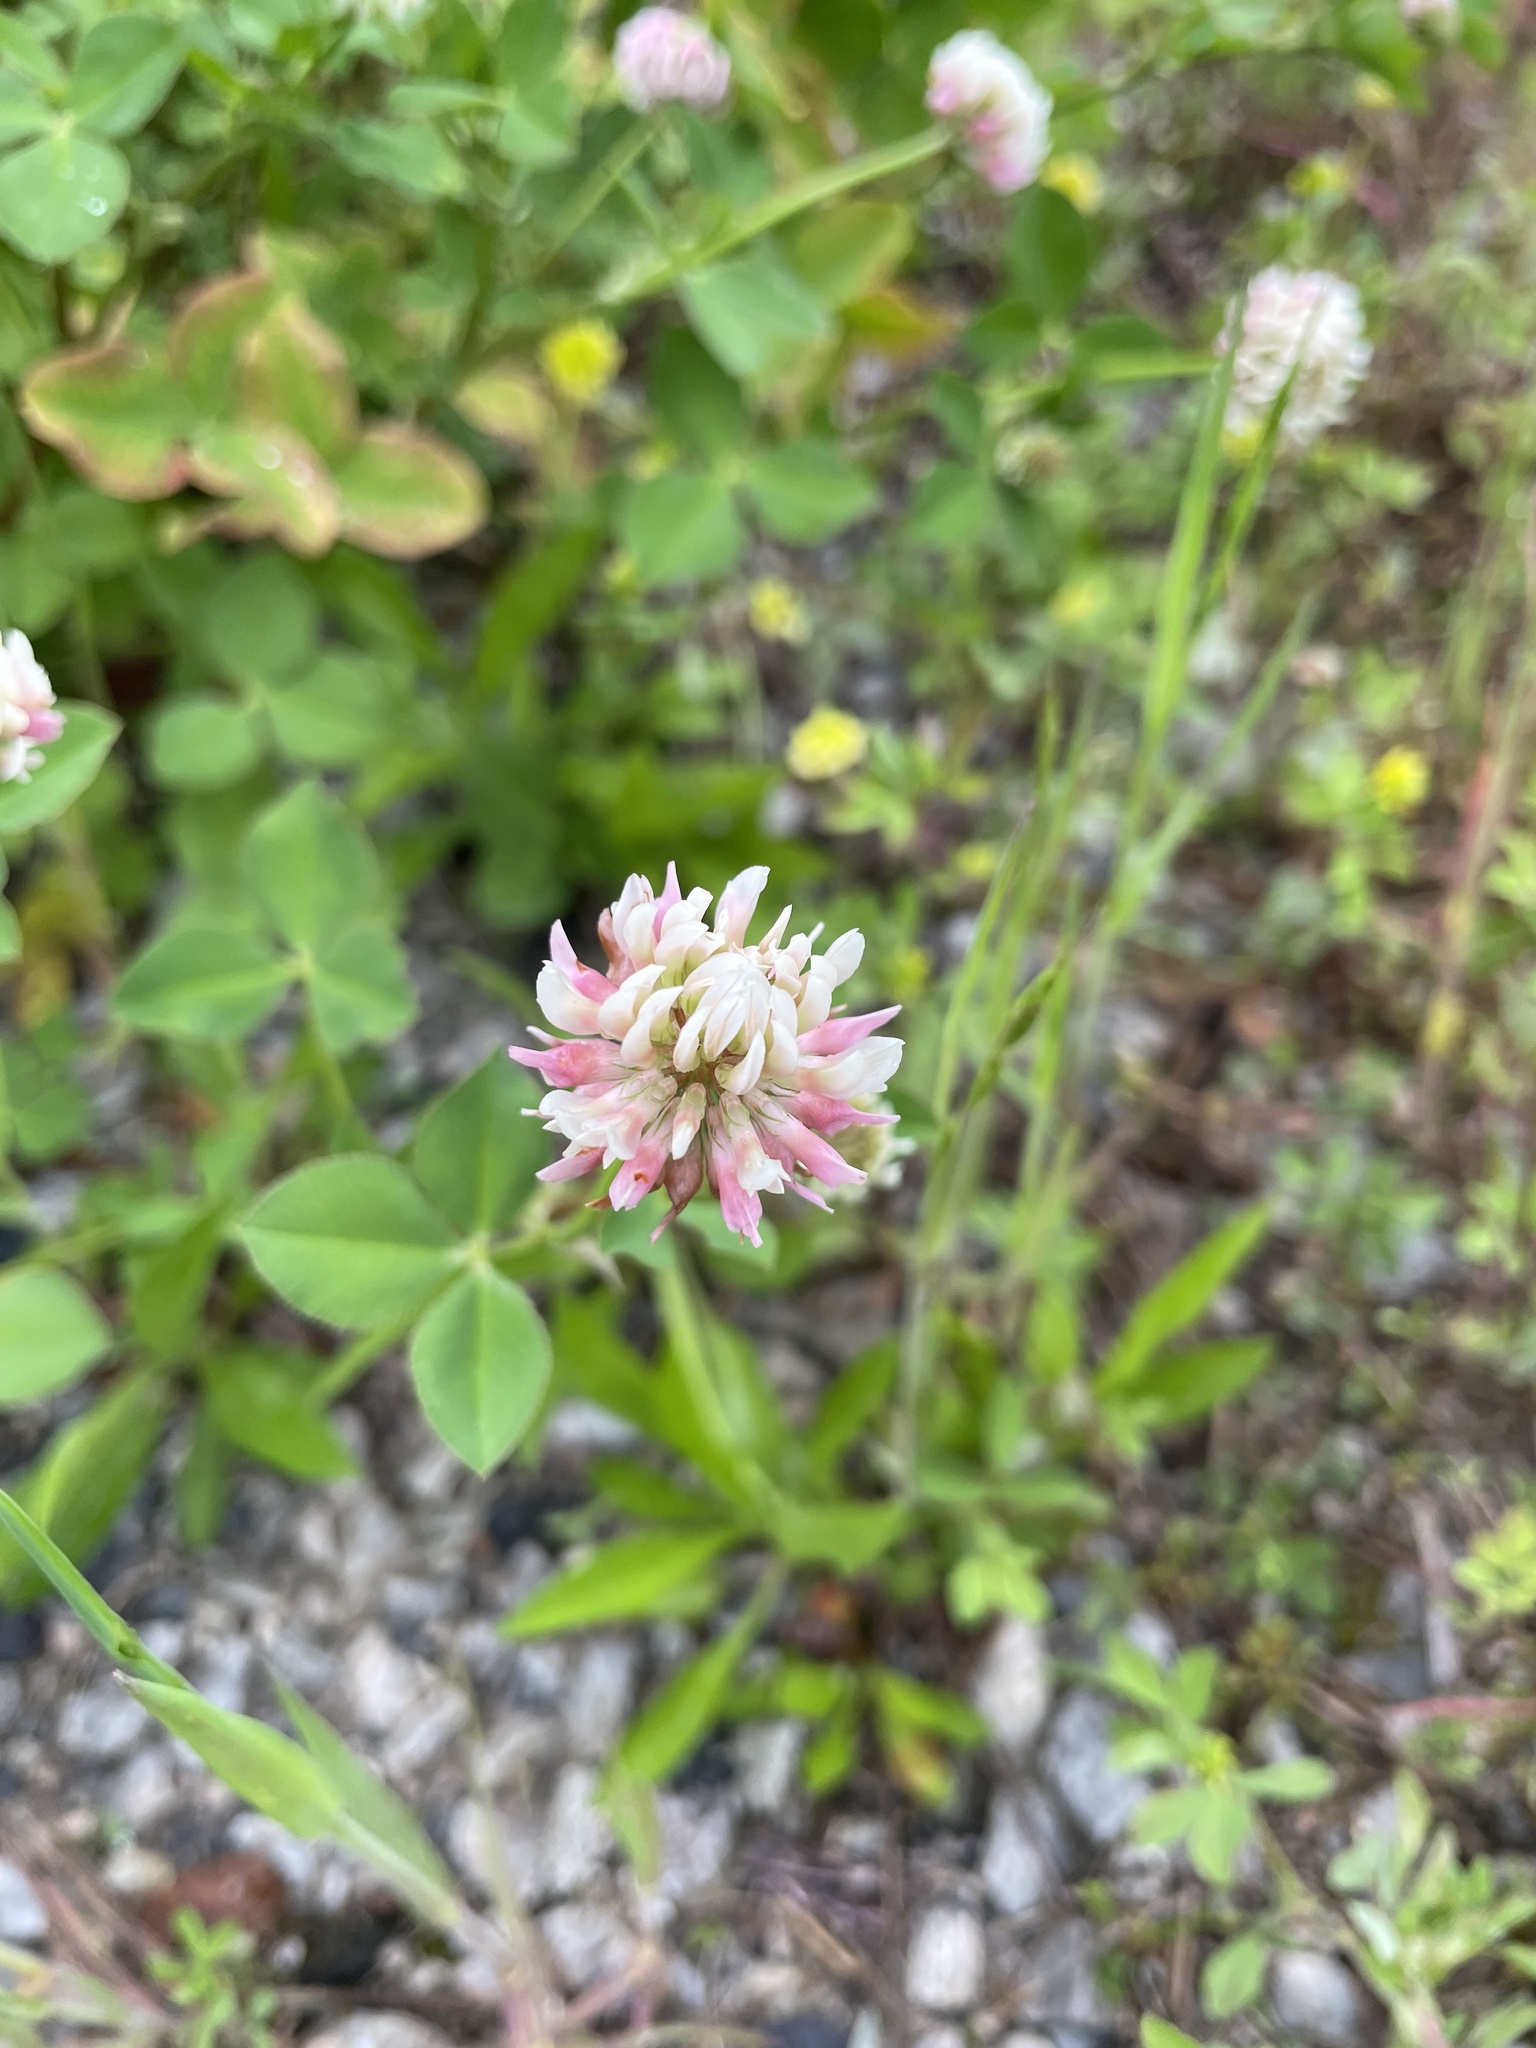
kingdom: Plantae
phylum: Tracheophyta
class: Magnoliopsida
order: Fabales
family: Fabaceae
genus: Trifolium
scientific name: Trifolium hybridum
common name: Alsike clover
